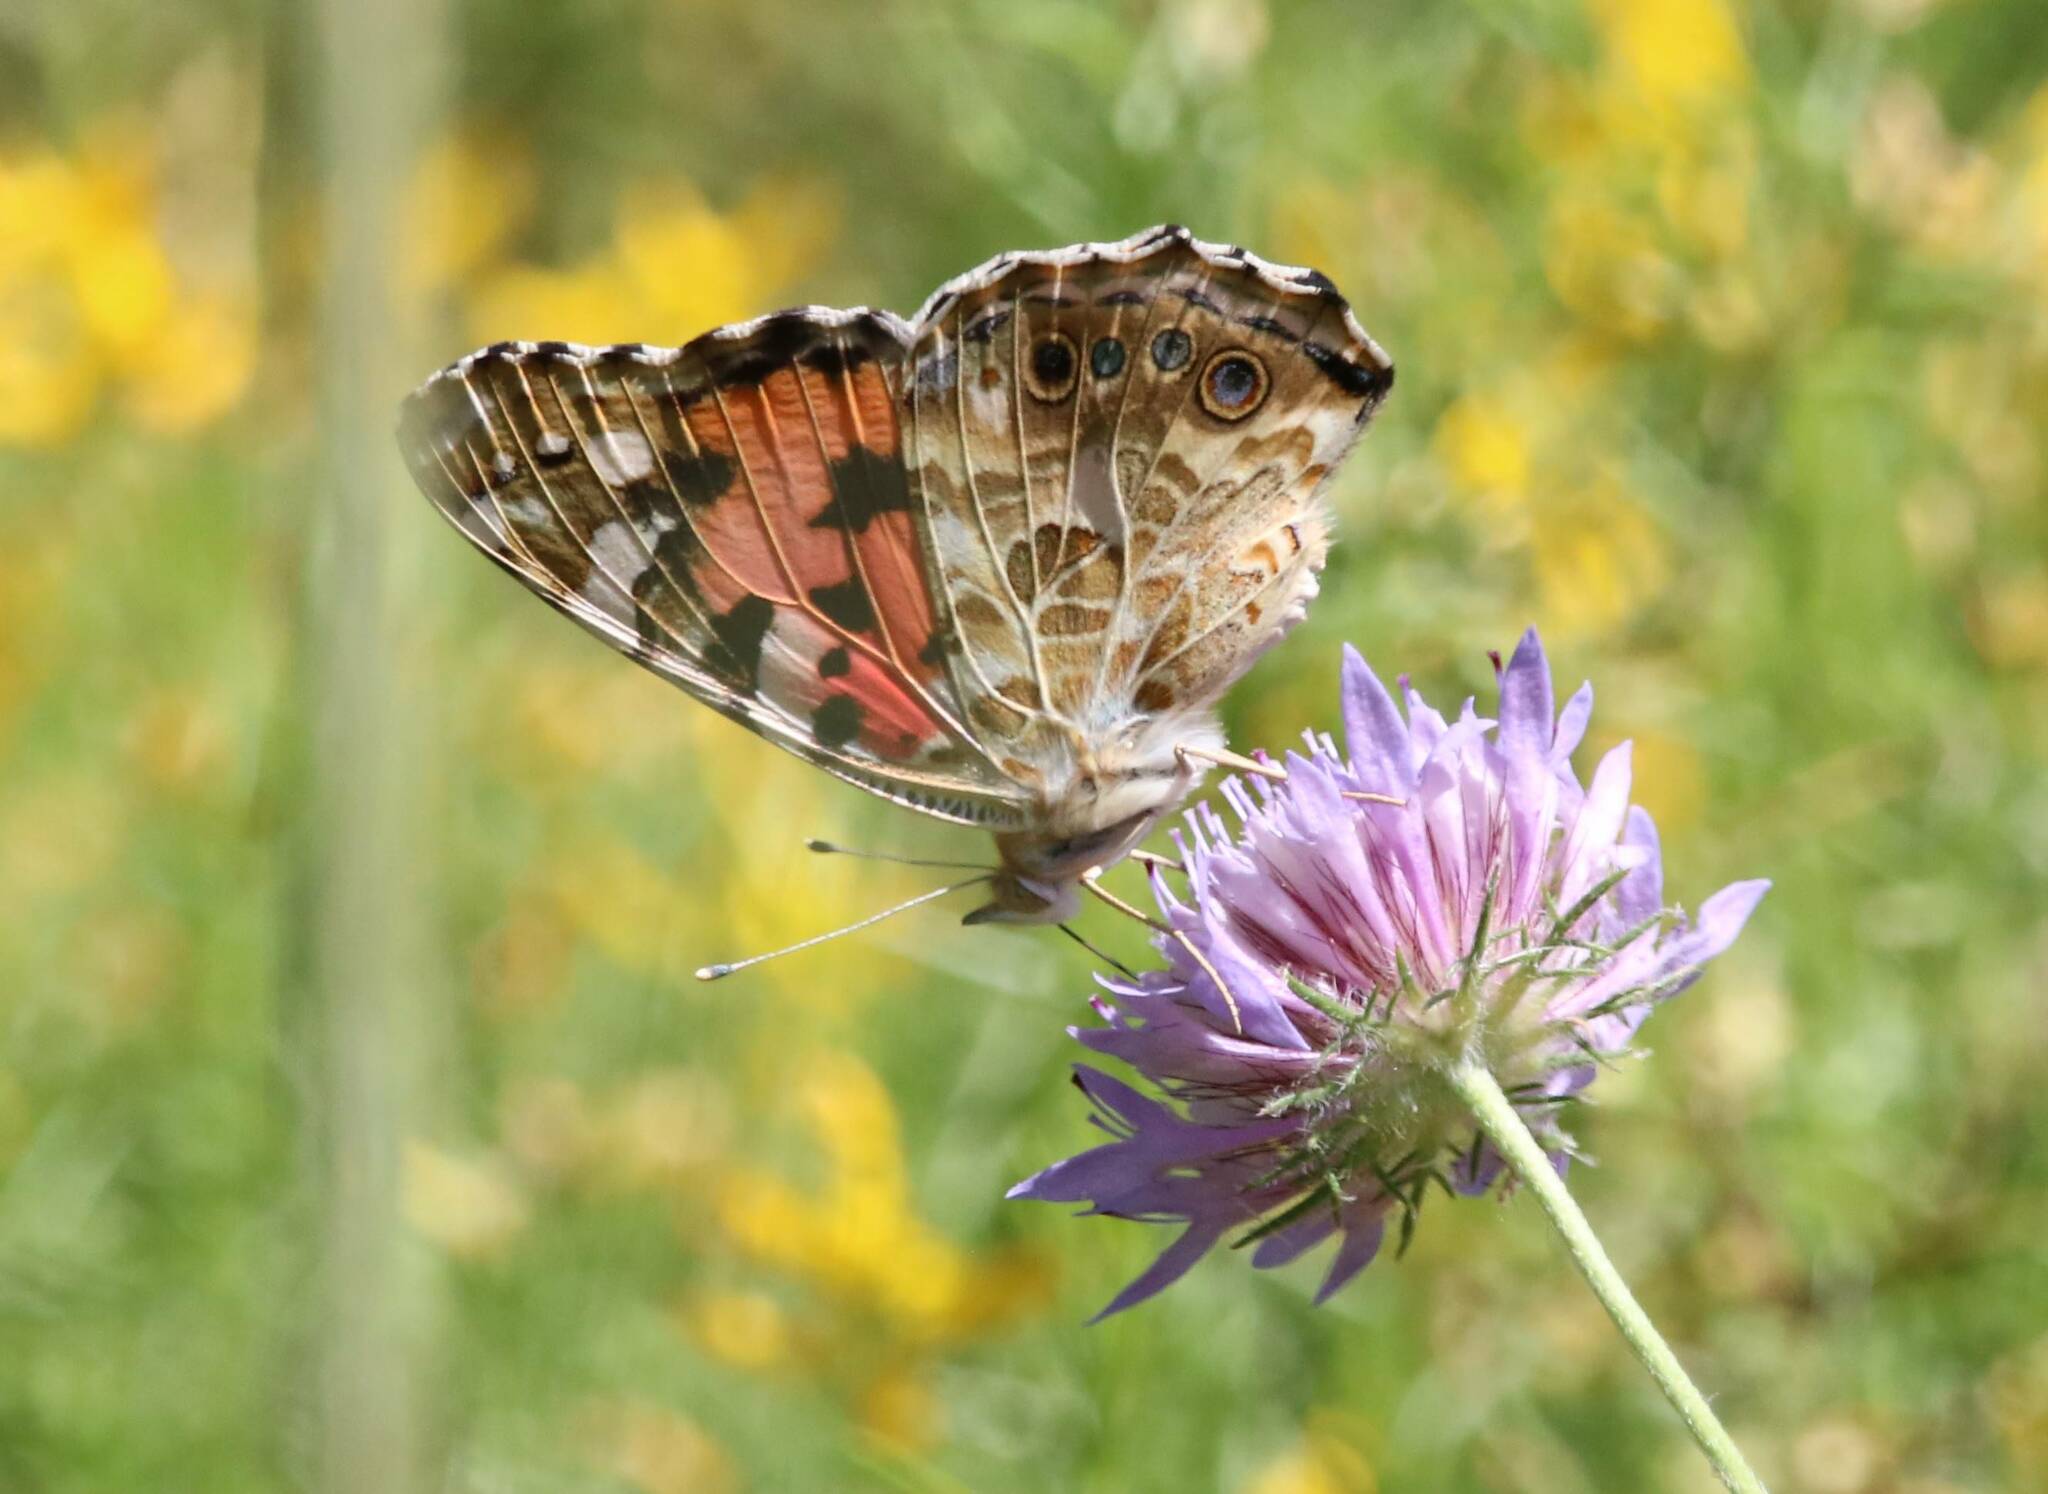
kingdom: Animalia
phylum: Arthropoda
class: Insecta
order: Lepidoptera
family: Nymphalidae
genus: Vanessa
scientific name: Vanessa cardui
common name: Painted lady
